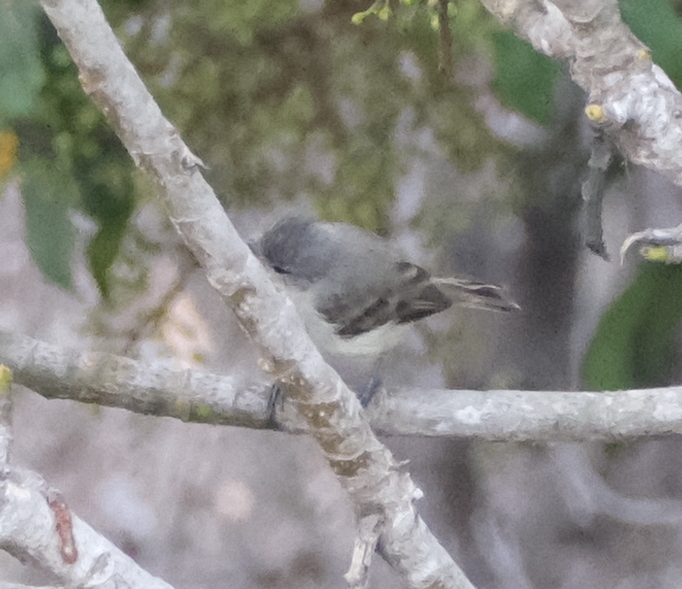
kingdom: Animalia
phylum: Chordata
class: Aves
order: Passeriformes
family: Tyrannidae
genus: Camptostoma
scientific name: Camptostoma obsoletum
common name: Southern beardless-tyrannulet
